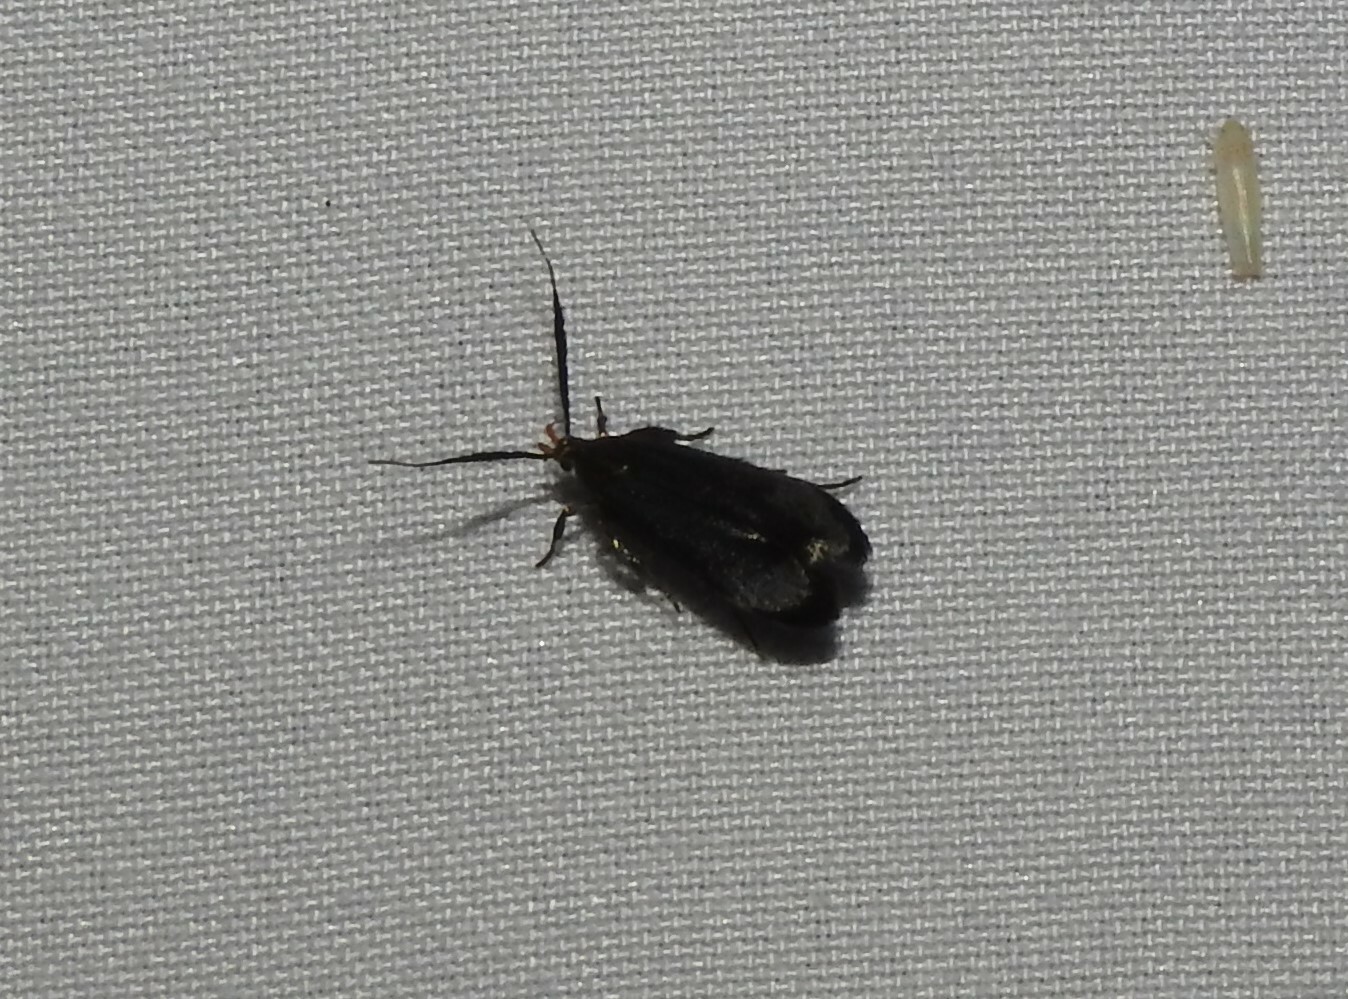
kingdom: Animalia
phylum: Arthropoda
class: Insecta
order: Lepidoptera
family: Gelechiidae
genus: Dichomeris
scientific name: Dichomeris nonstrigella
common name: Little devil moth
